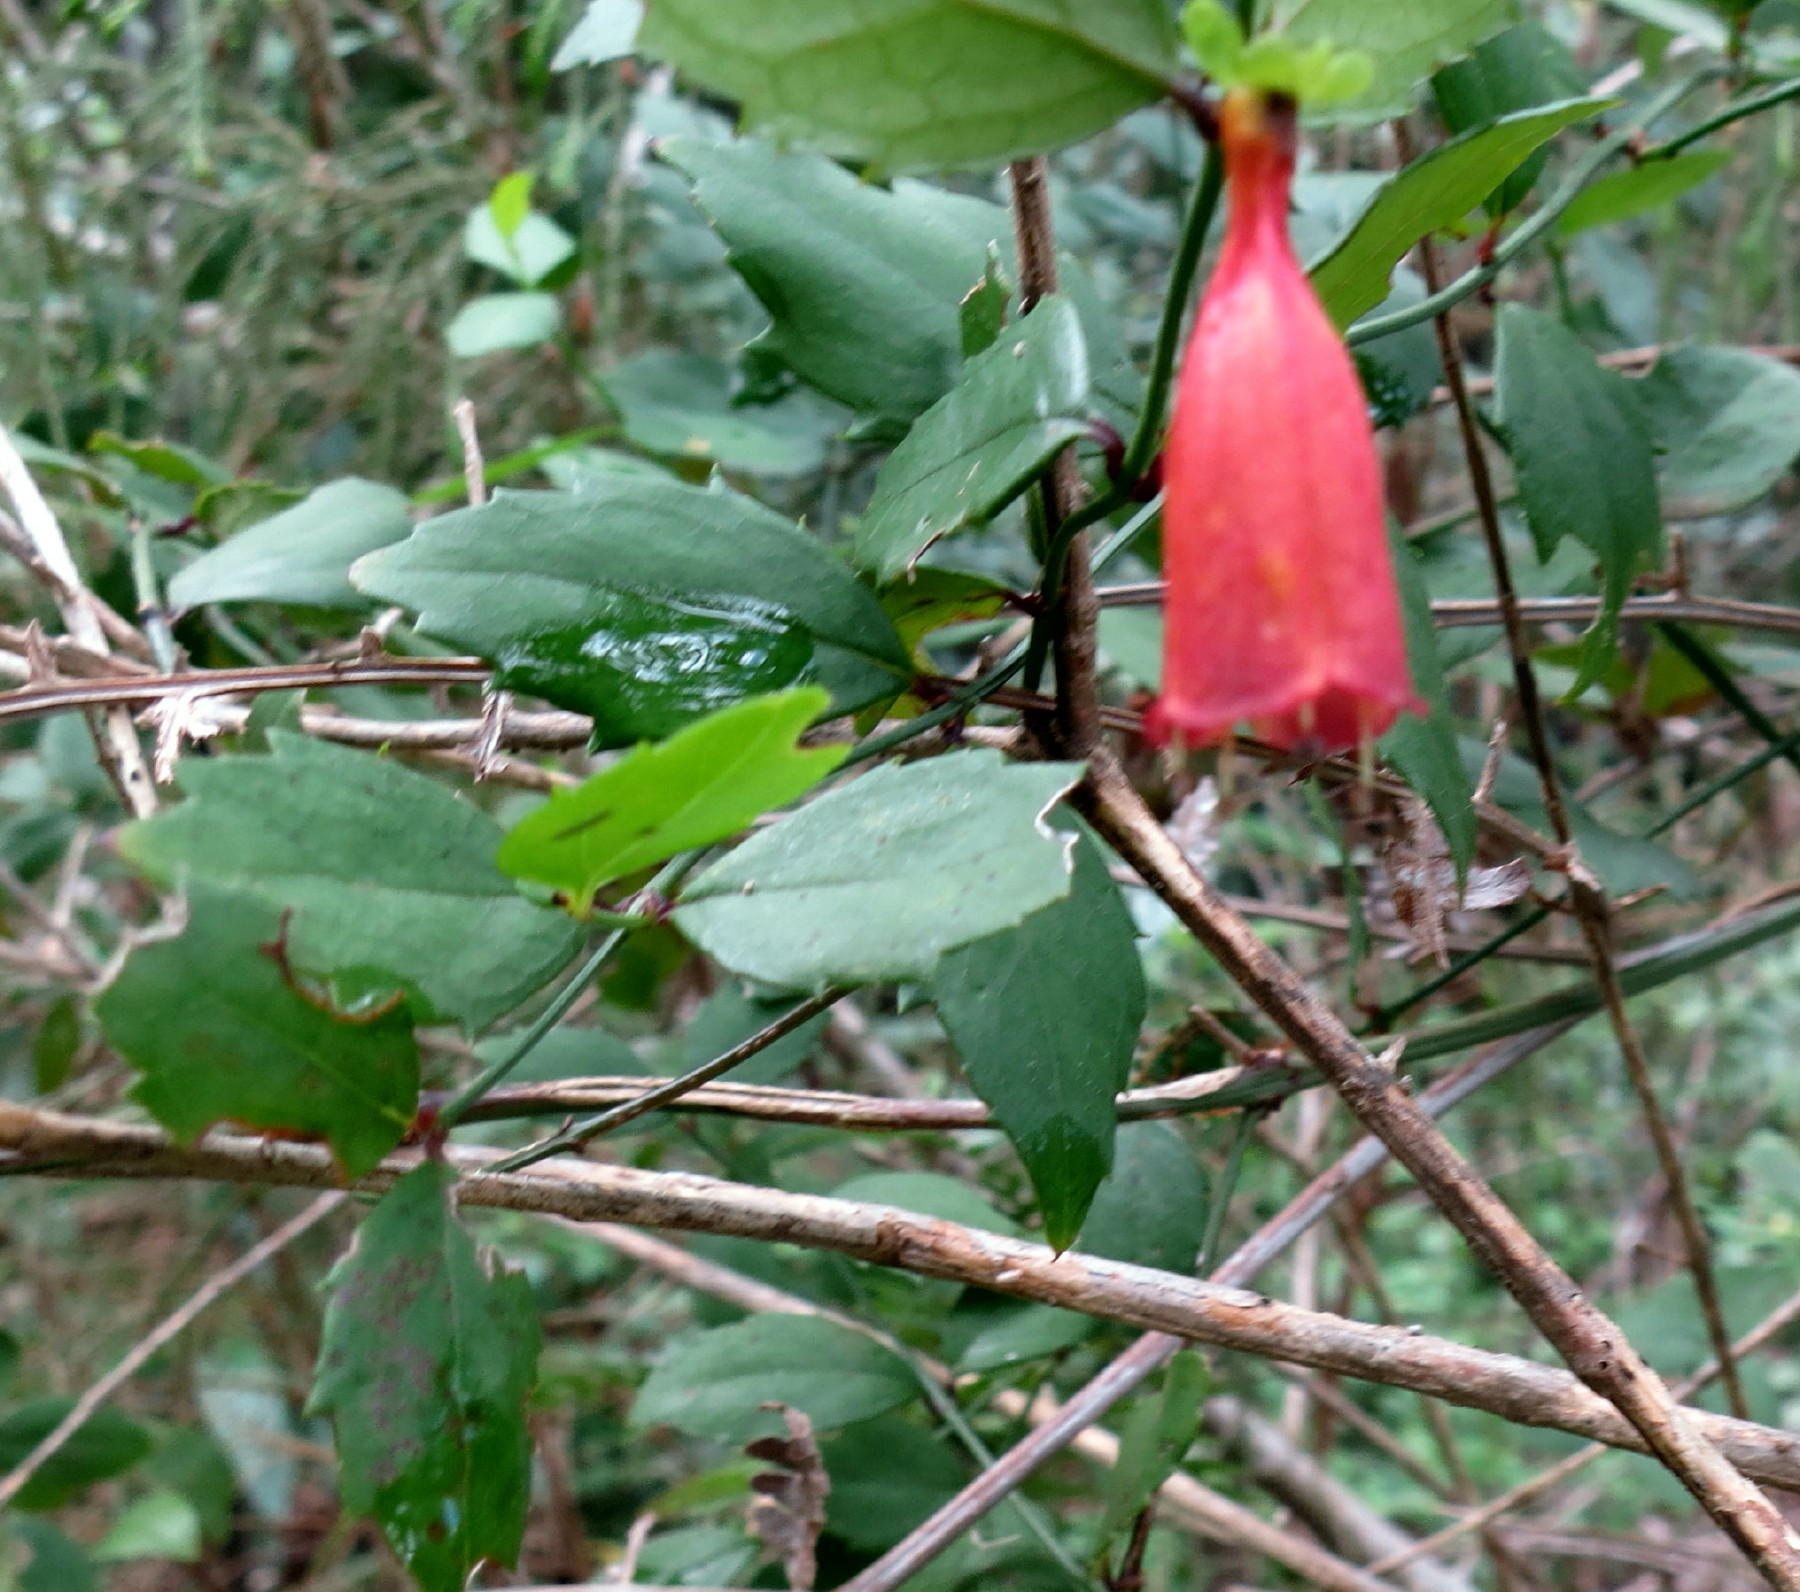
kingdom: Plantae
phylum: Tracheophyta
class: Magnoliopsida
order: Lamiales
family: Stilbaceae
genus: Halleria
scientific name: Halleria elliptica
